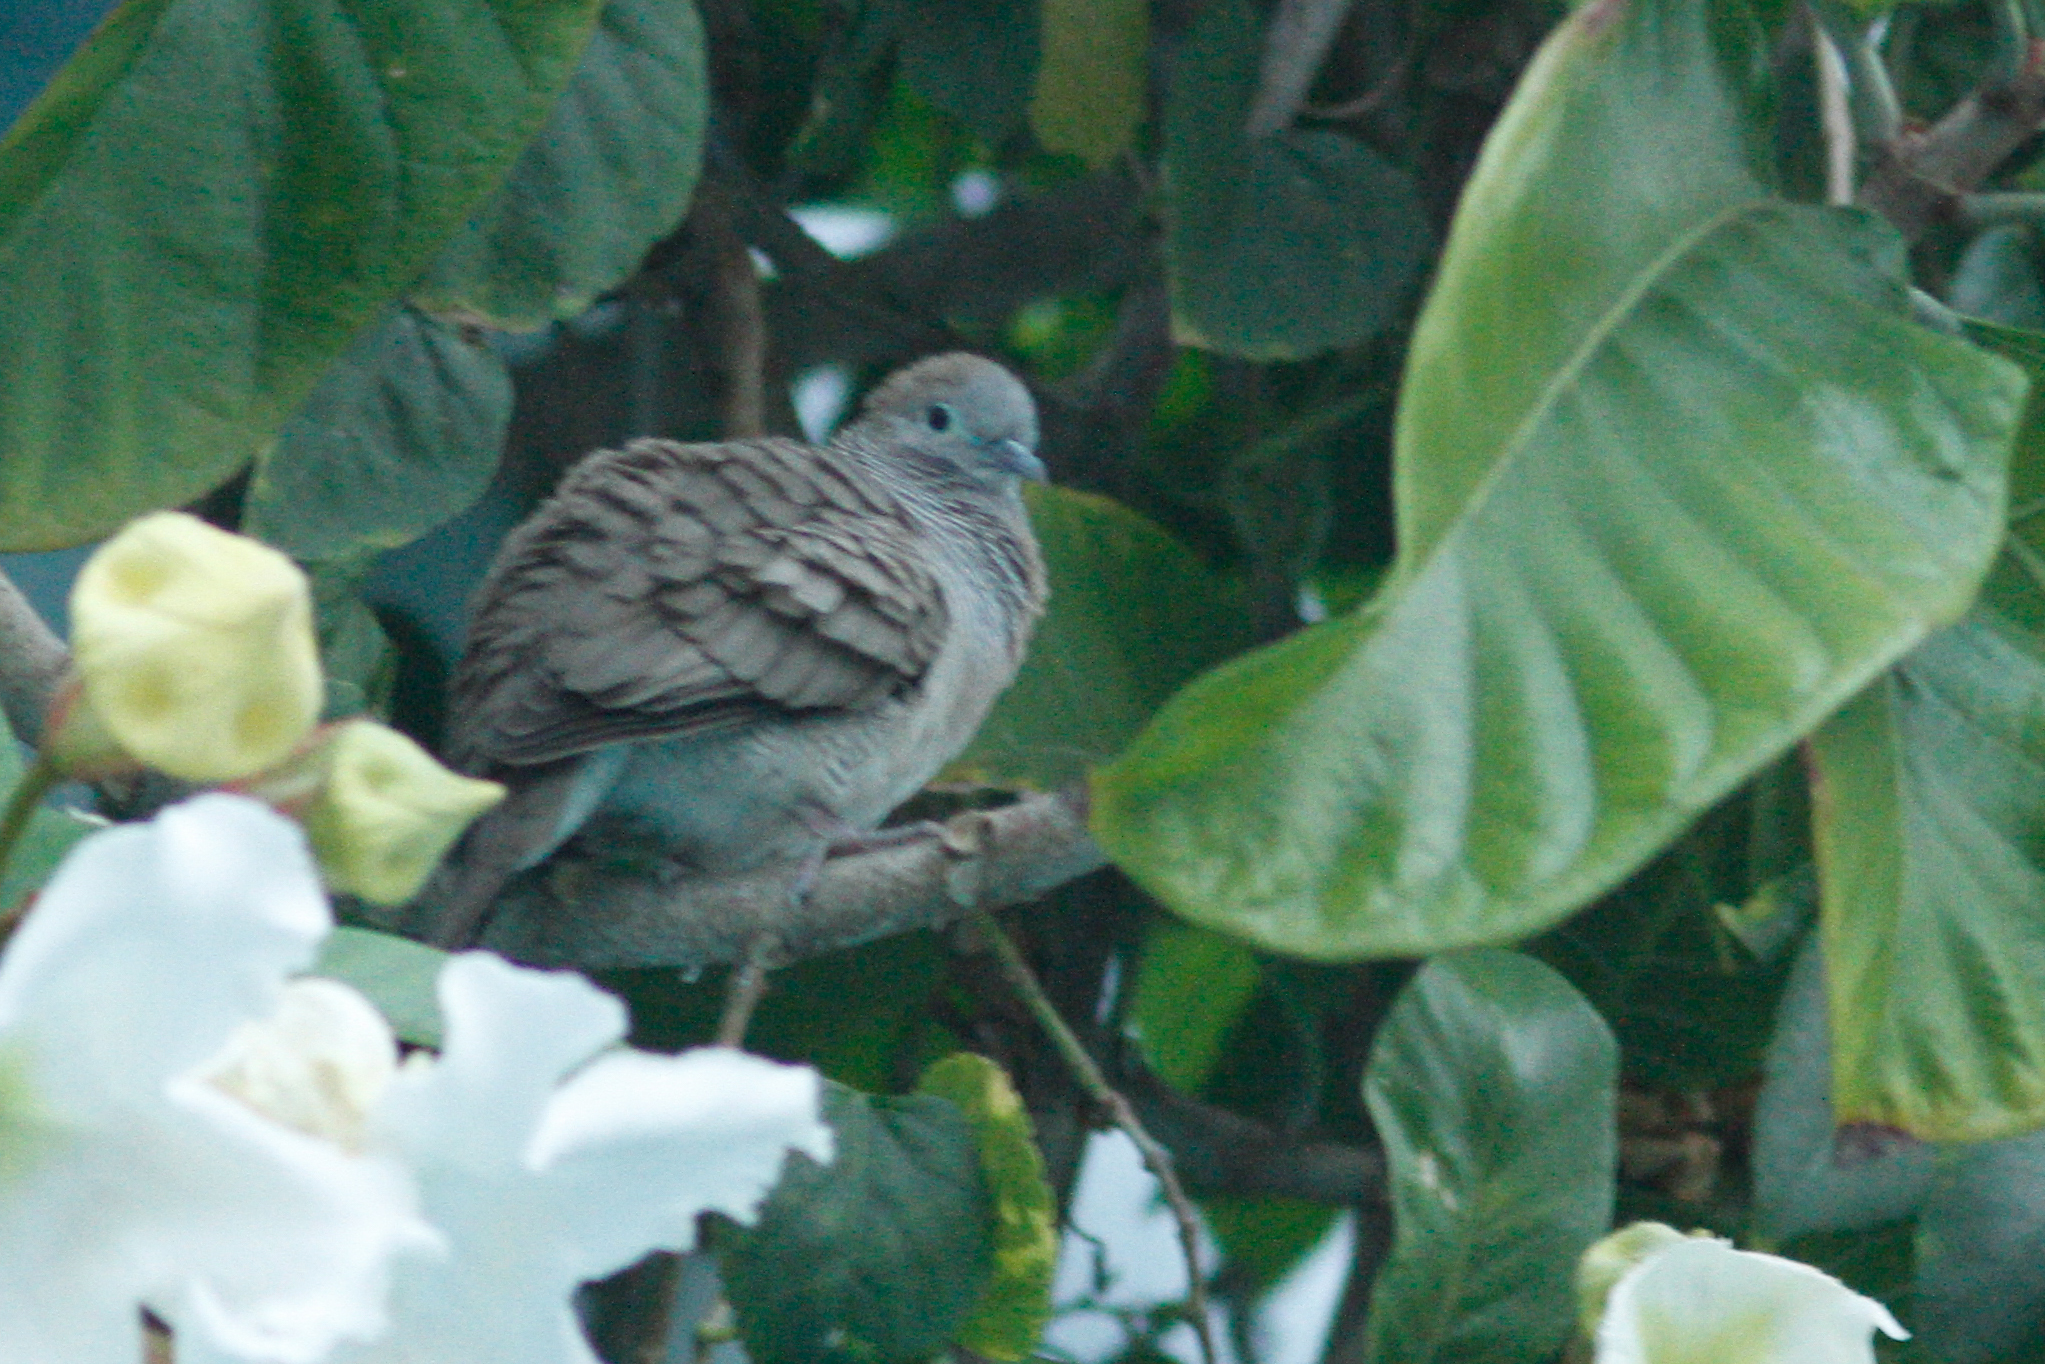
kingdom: Animalia
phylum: Chordata
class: Aves
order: Columbiformes
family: Columbidae
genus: Geopelia
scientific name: Geopelia striata
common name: Zebra dove
